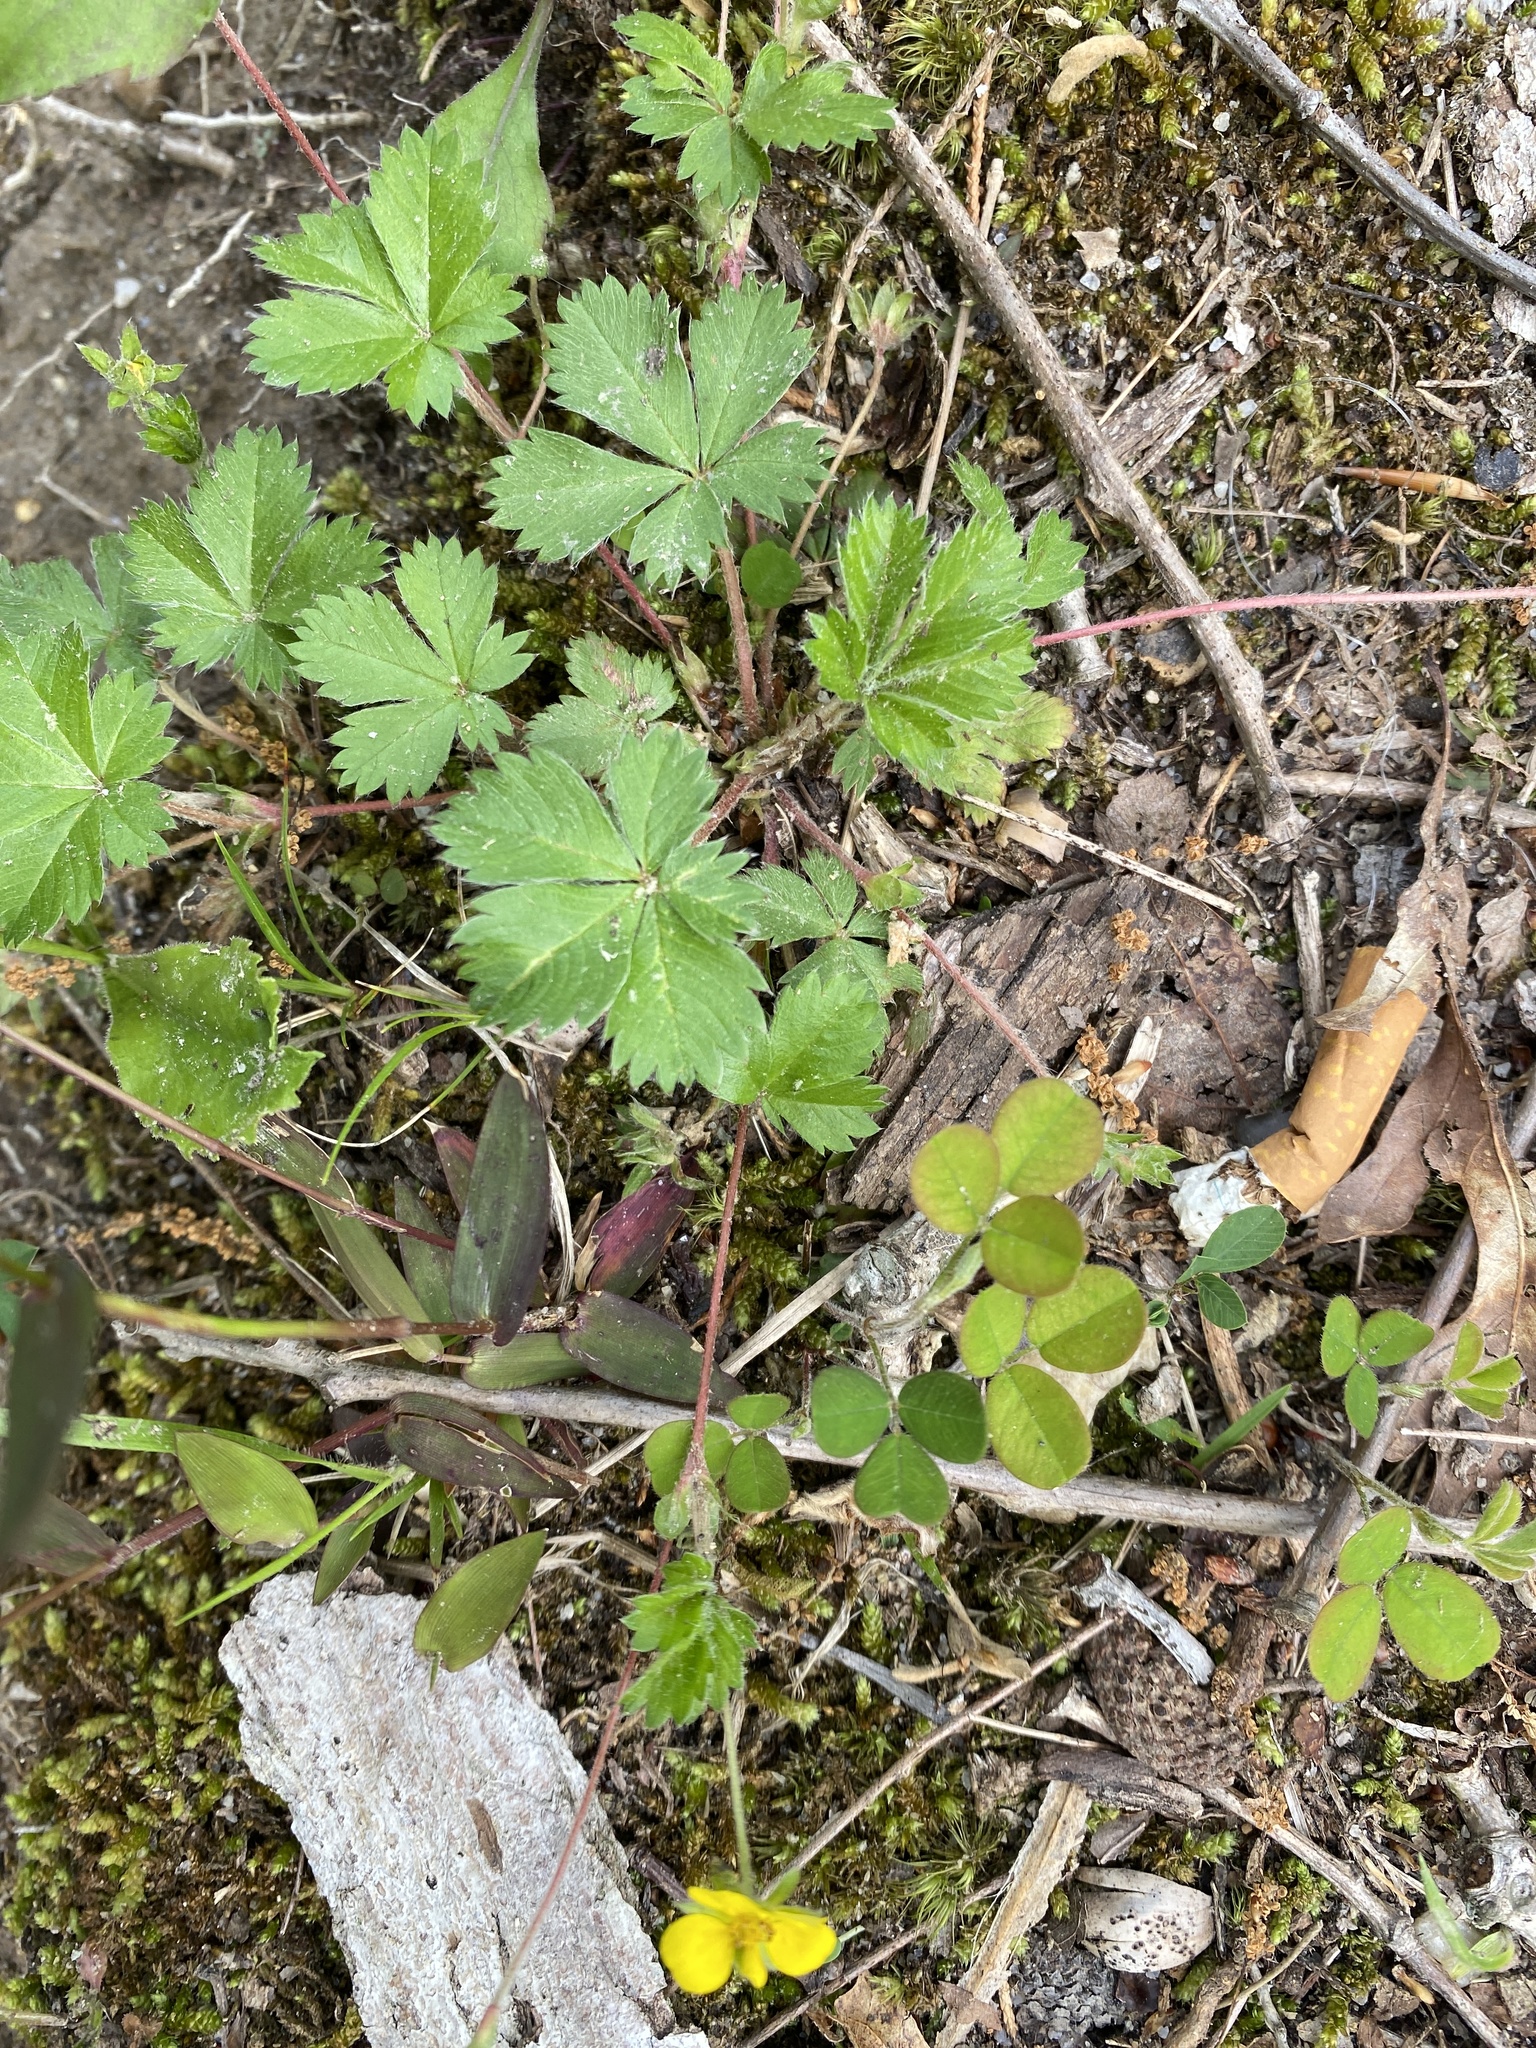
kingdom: Plantae
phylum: Tracheophyta
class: Magnoliopsida
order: Rosales
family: Rosaceae
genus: Potentilla
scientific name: Potentilla canadensis
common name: Canada cinquefoil
